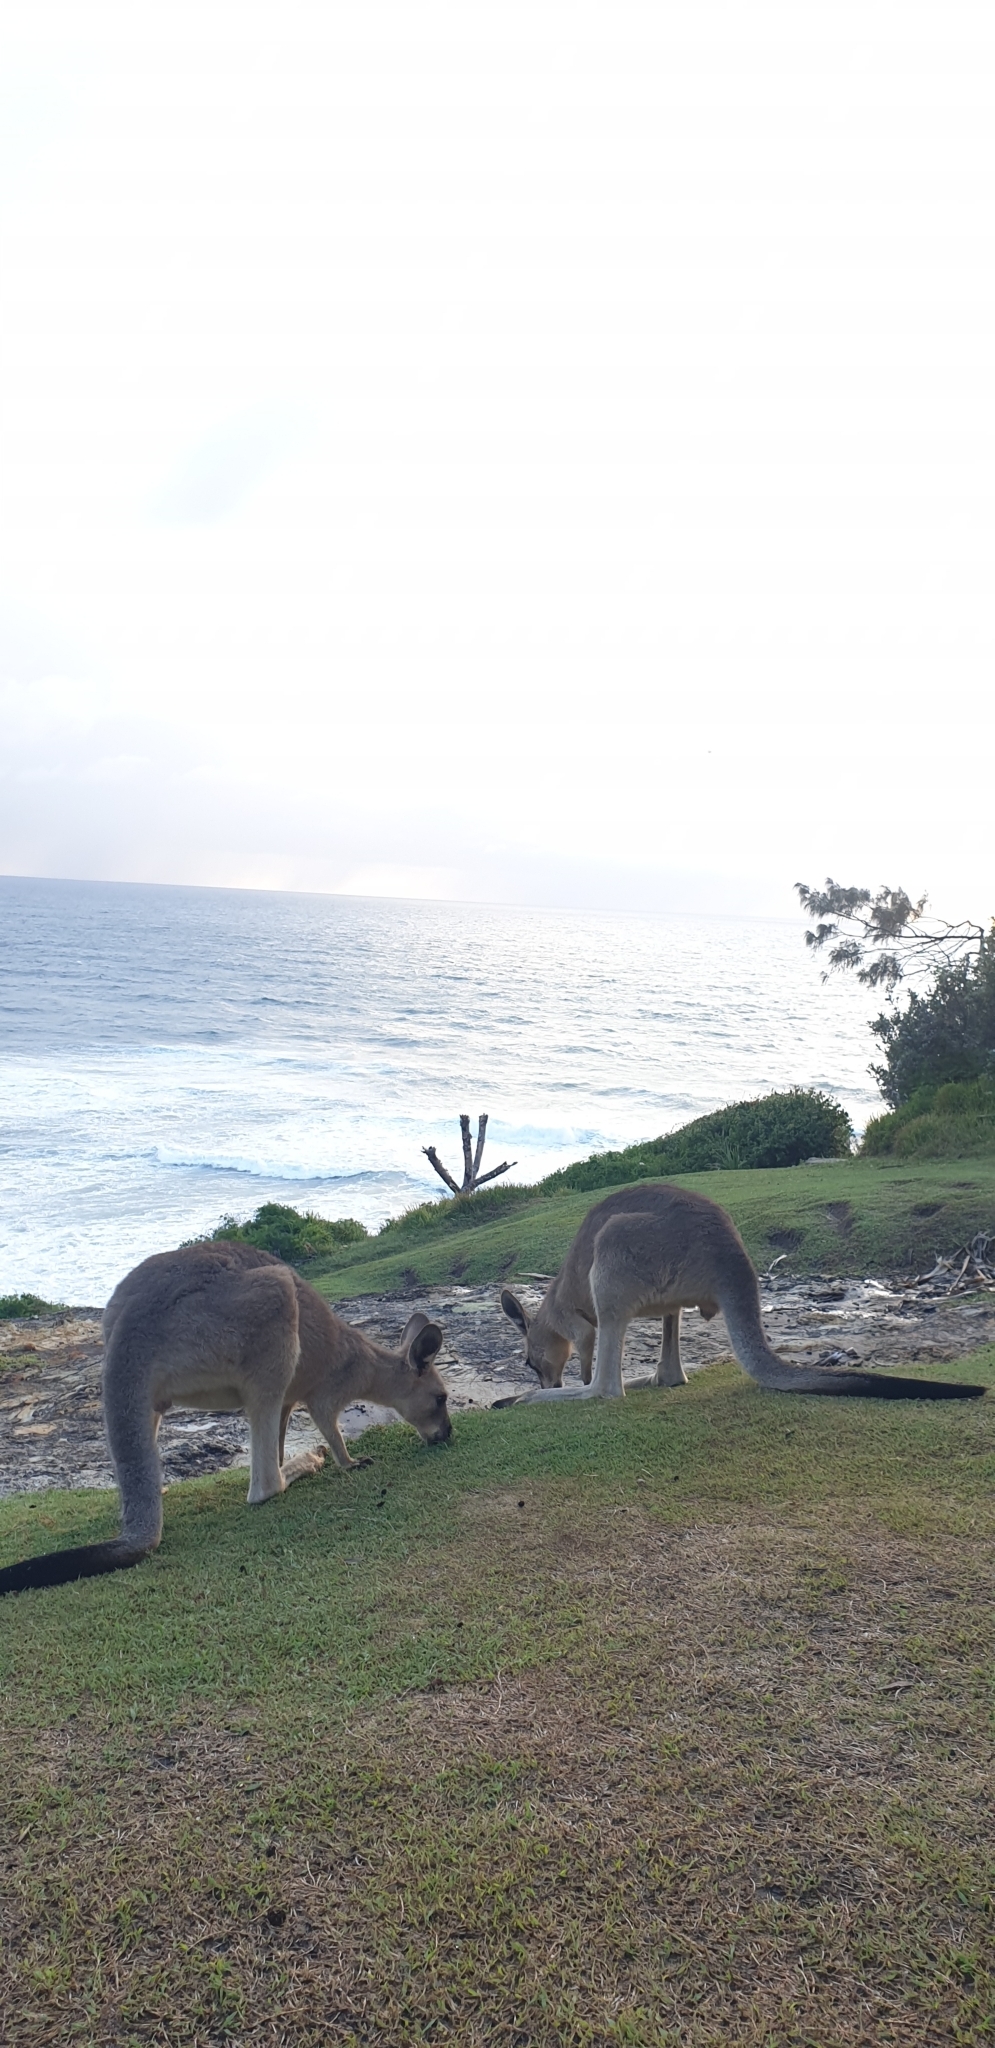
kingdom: Animalia
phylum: Chordata
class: Mammalia
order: Diprotodontia
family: Macropodidae
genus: Macropus
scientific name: Macropus giganteus
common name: Eastern grey kangaroo
